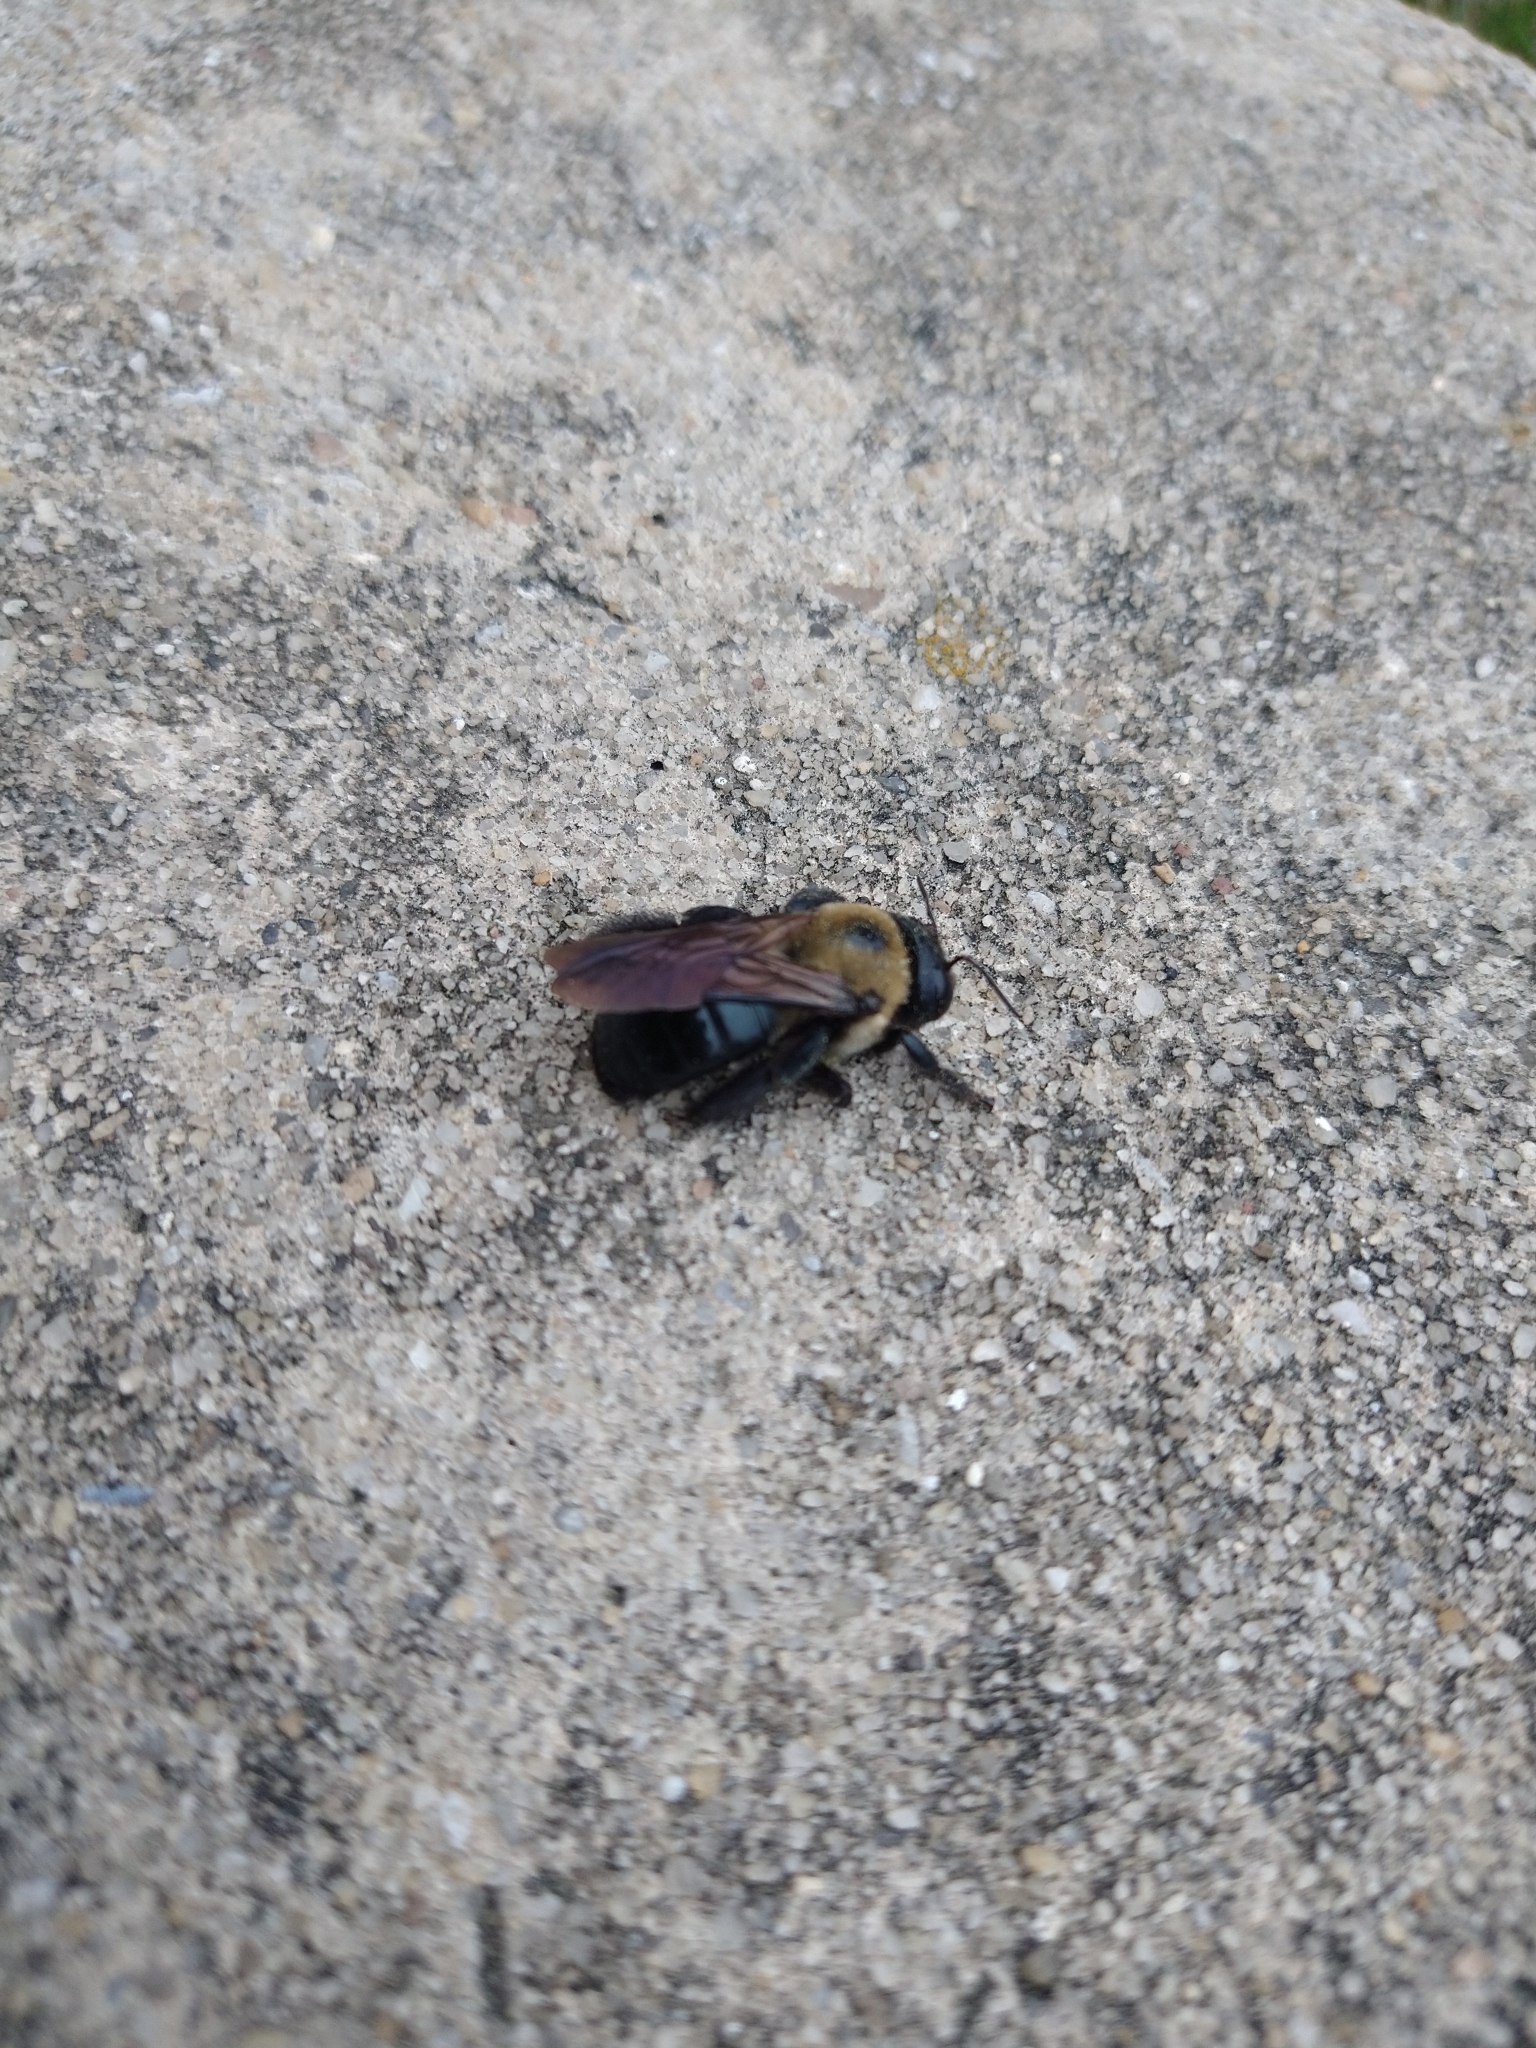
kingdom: Animalia
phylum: Arthropoda
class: Insecta
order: Hymenoptera
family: Apidae
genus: Xylocopa
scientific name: Xylocopa virginica
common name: Carpenter bee
